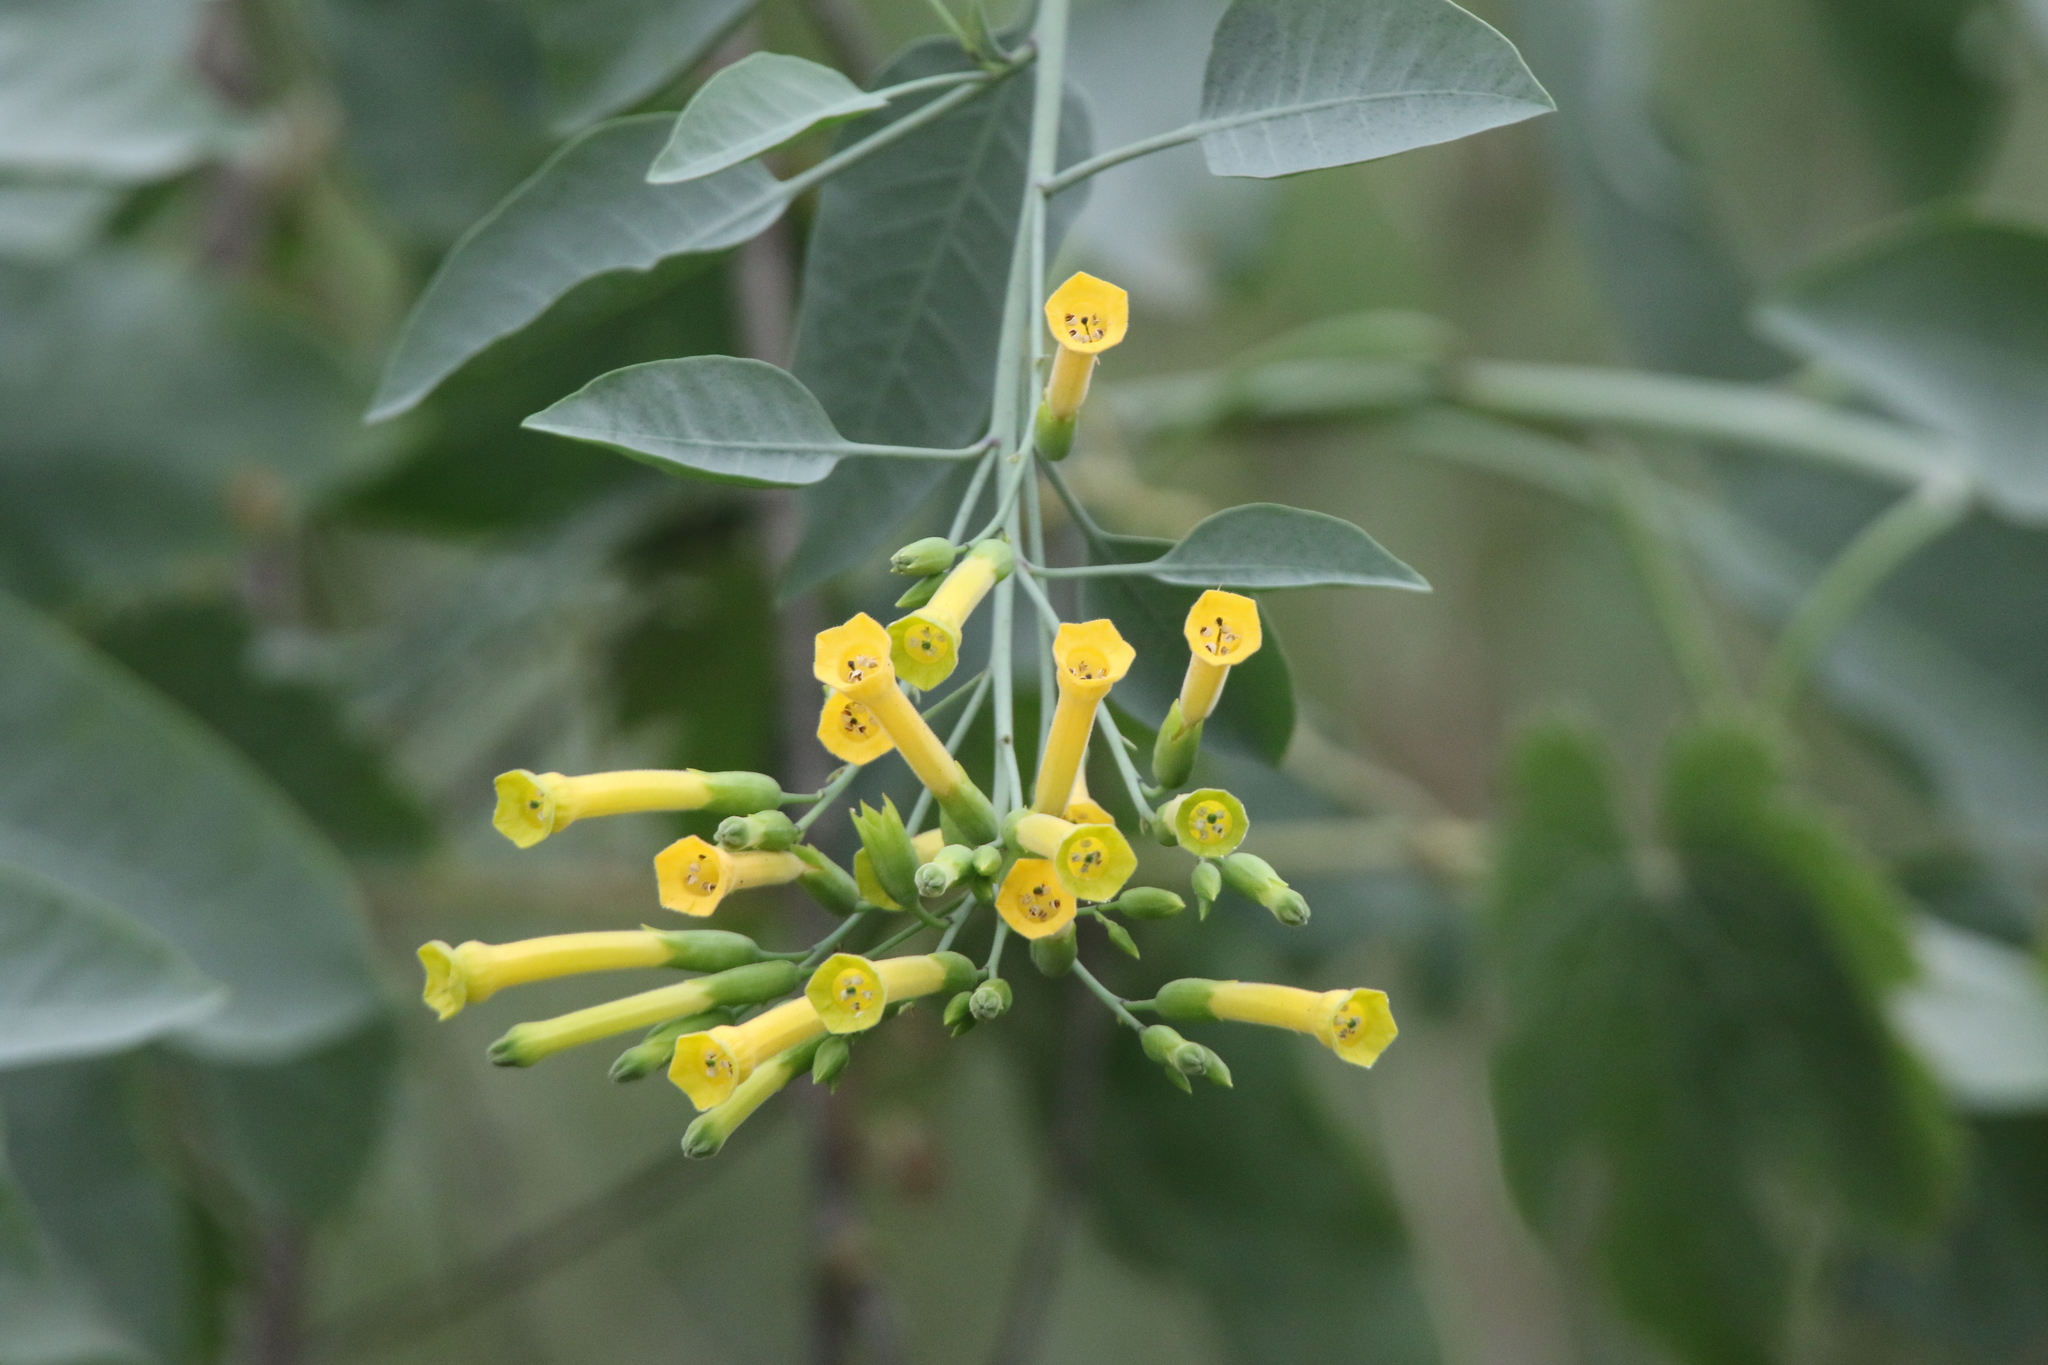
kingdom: Plantae
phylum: Tracheophyta
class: Magnoliopsida
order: Solanales
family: Solanaceae
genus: Nicotiana
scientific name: Nicotiana glauca
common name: Tree tobacco
